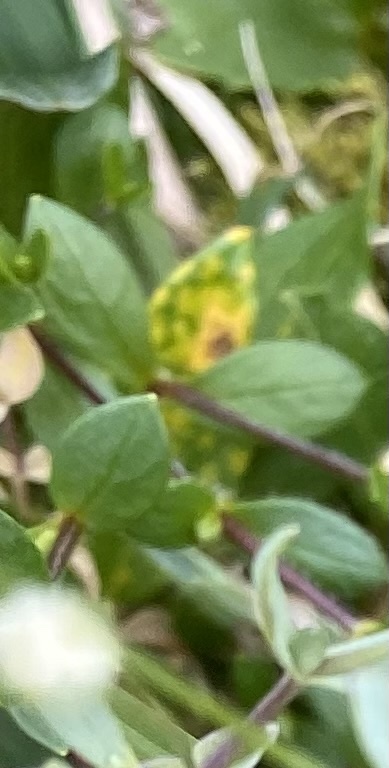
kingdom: Plantae
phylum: Tracheophyta
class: Magnoliopsida
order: Caryophyllales
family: Caryophyllaceae
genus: Stellaria
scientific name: Stellaria longipes
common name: Goldie's starwort
